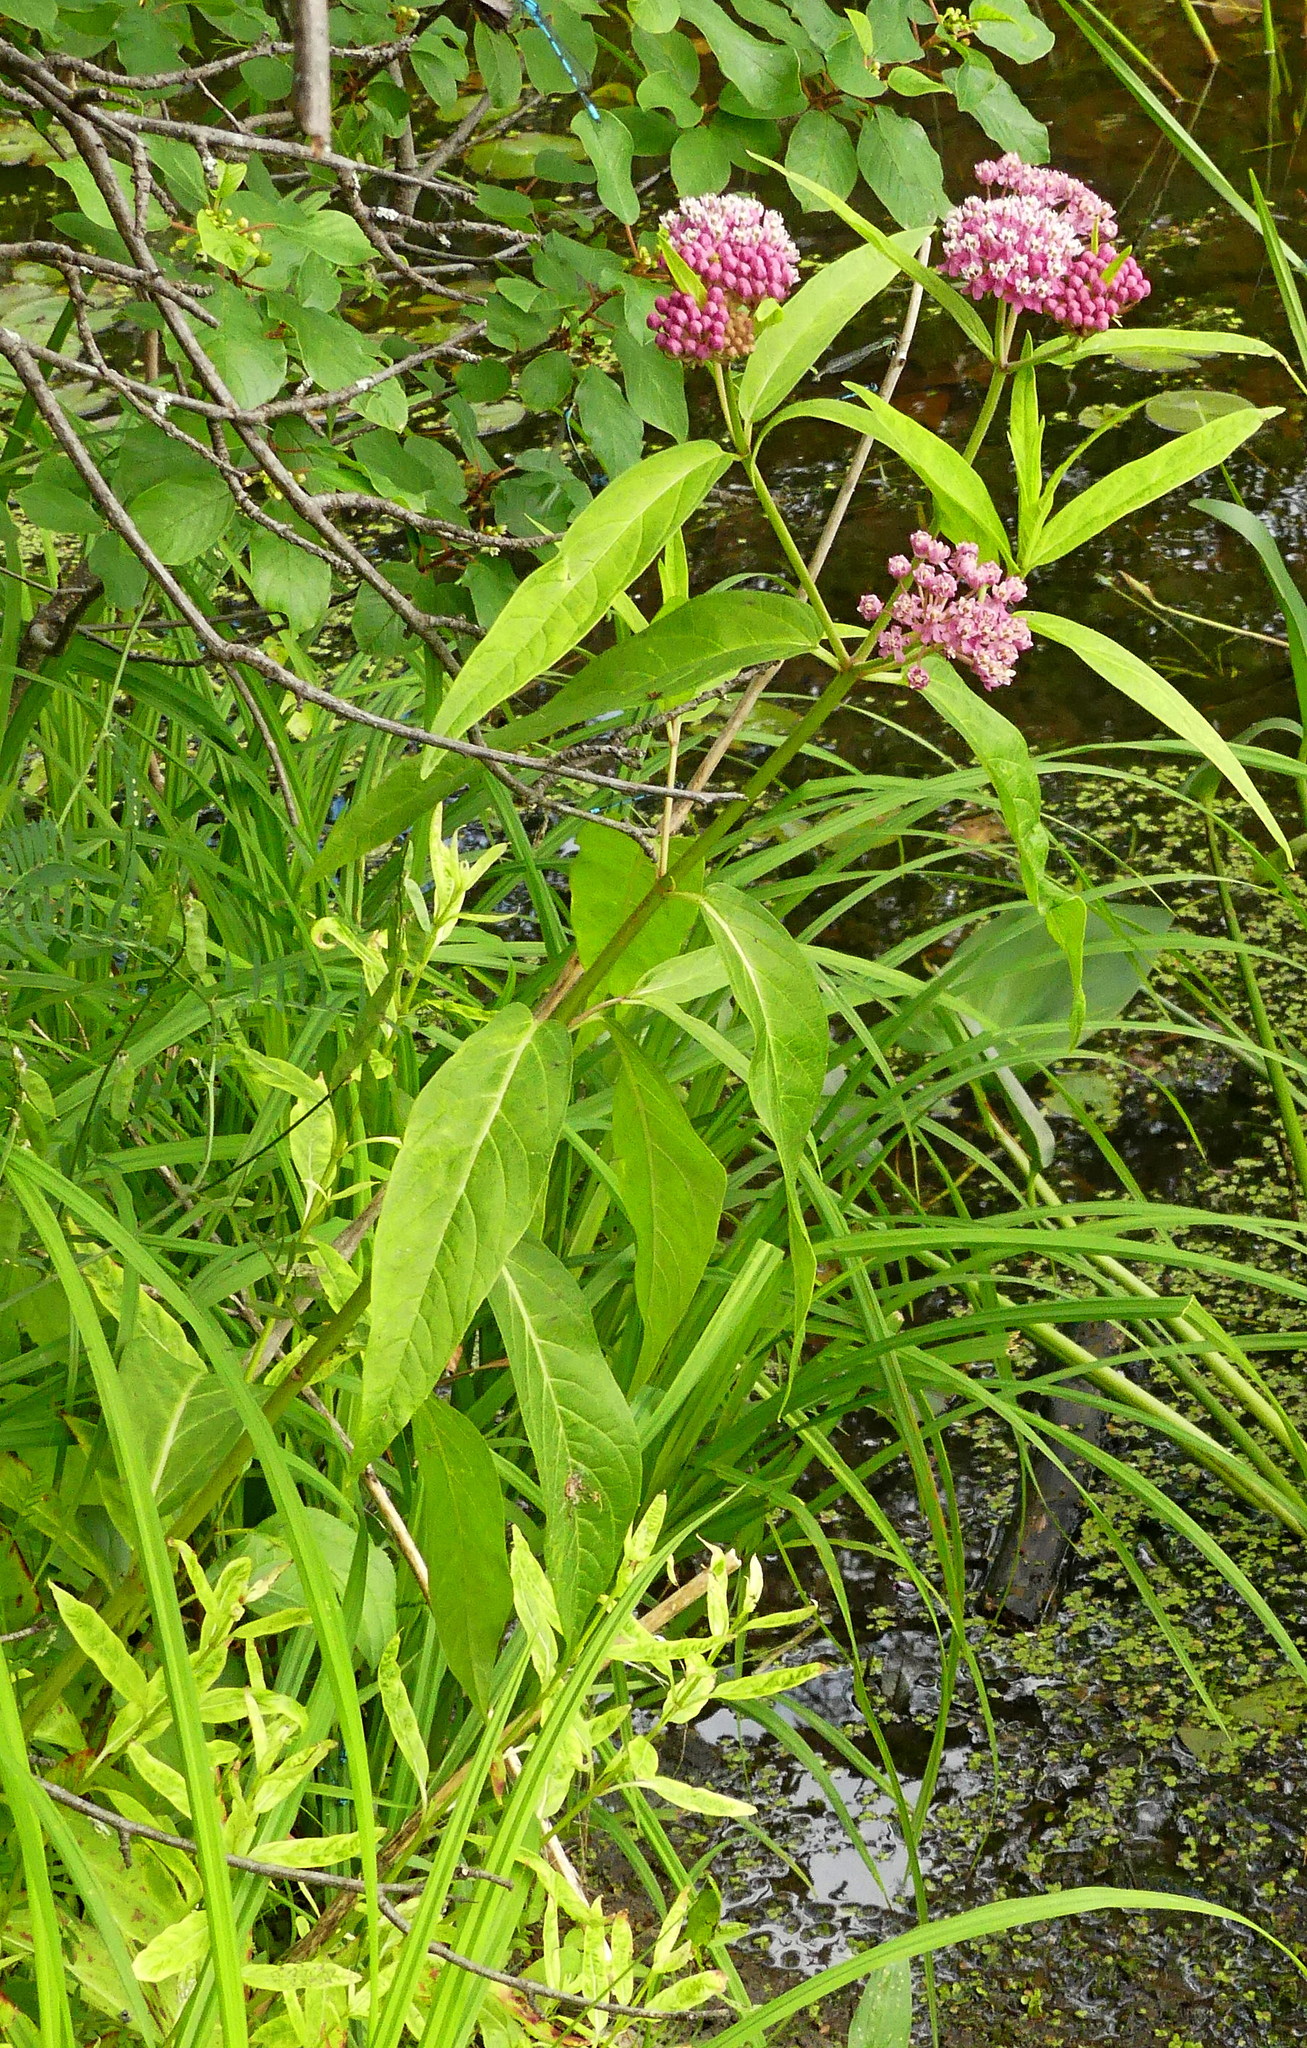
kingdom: Plantae
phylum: Tracheophyta
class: Magnoliopsida
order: Gentianales
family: Apocynaceae
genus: Asclepias
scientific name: Asclepias incarnata
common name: Swamp milkweed
